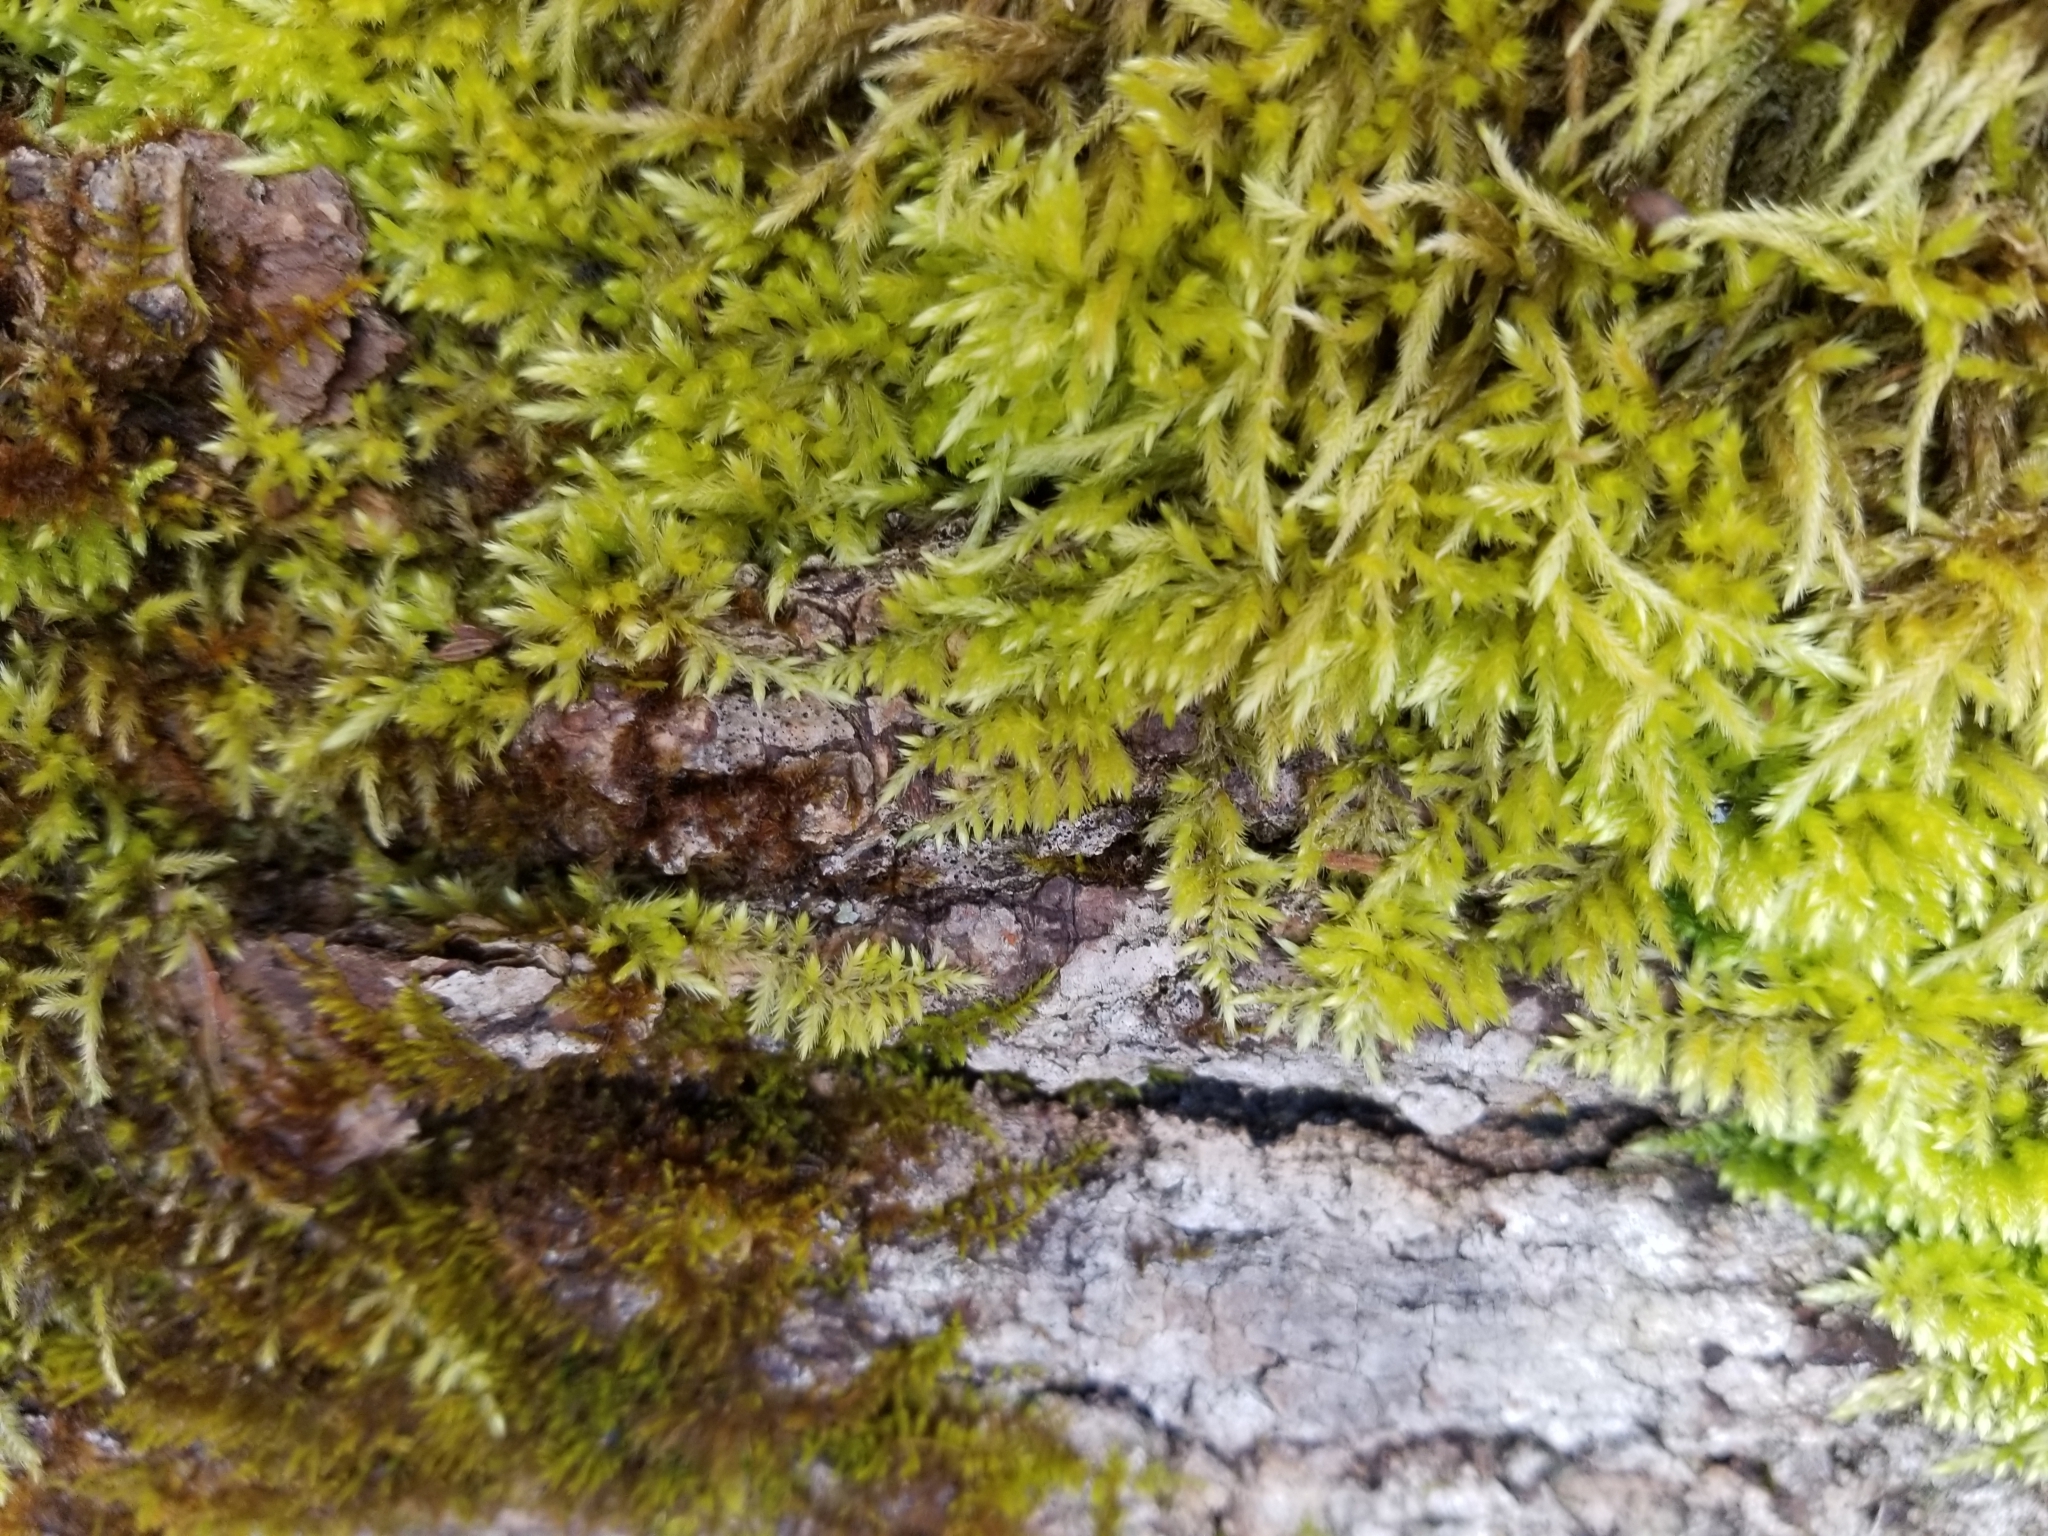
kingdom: Plantae
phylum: Bryophyta
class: Bryopsida
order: Hypnales
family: Callicladiaceae
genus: Callicladium
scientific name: Callicladium haldanianum
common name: Beautiful branch moss
